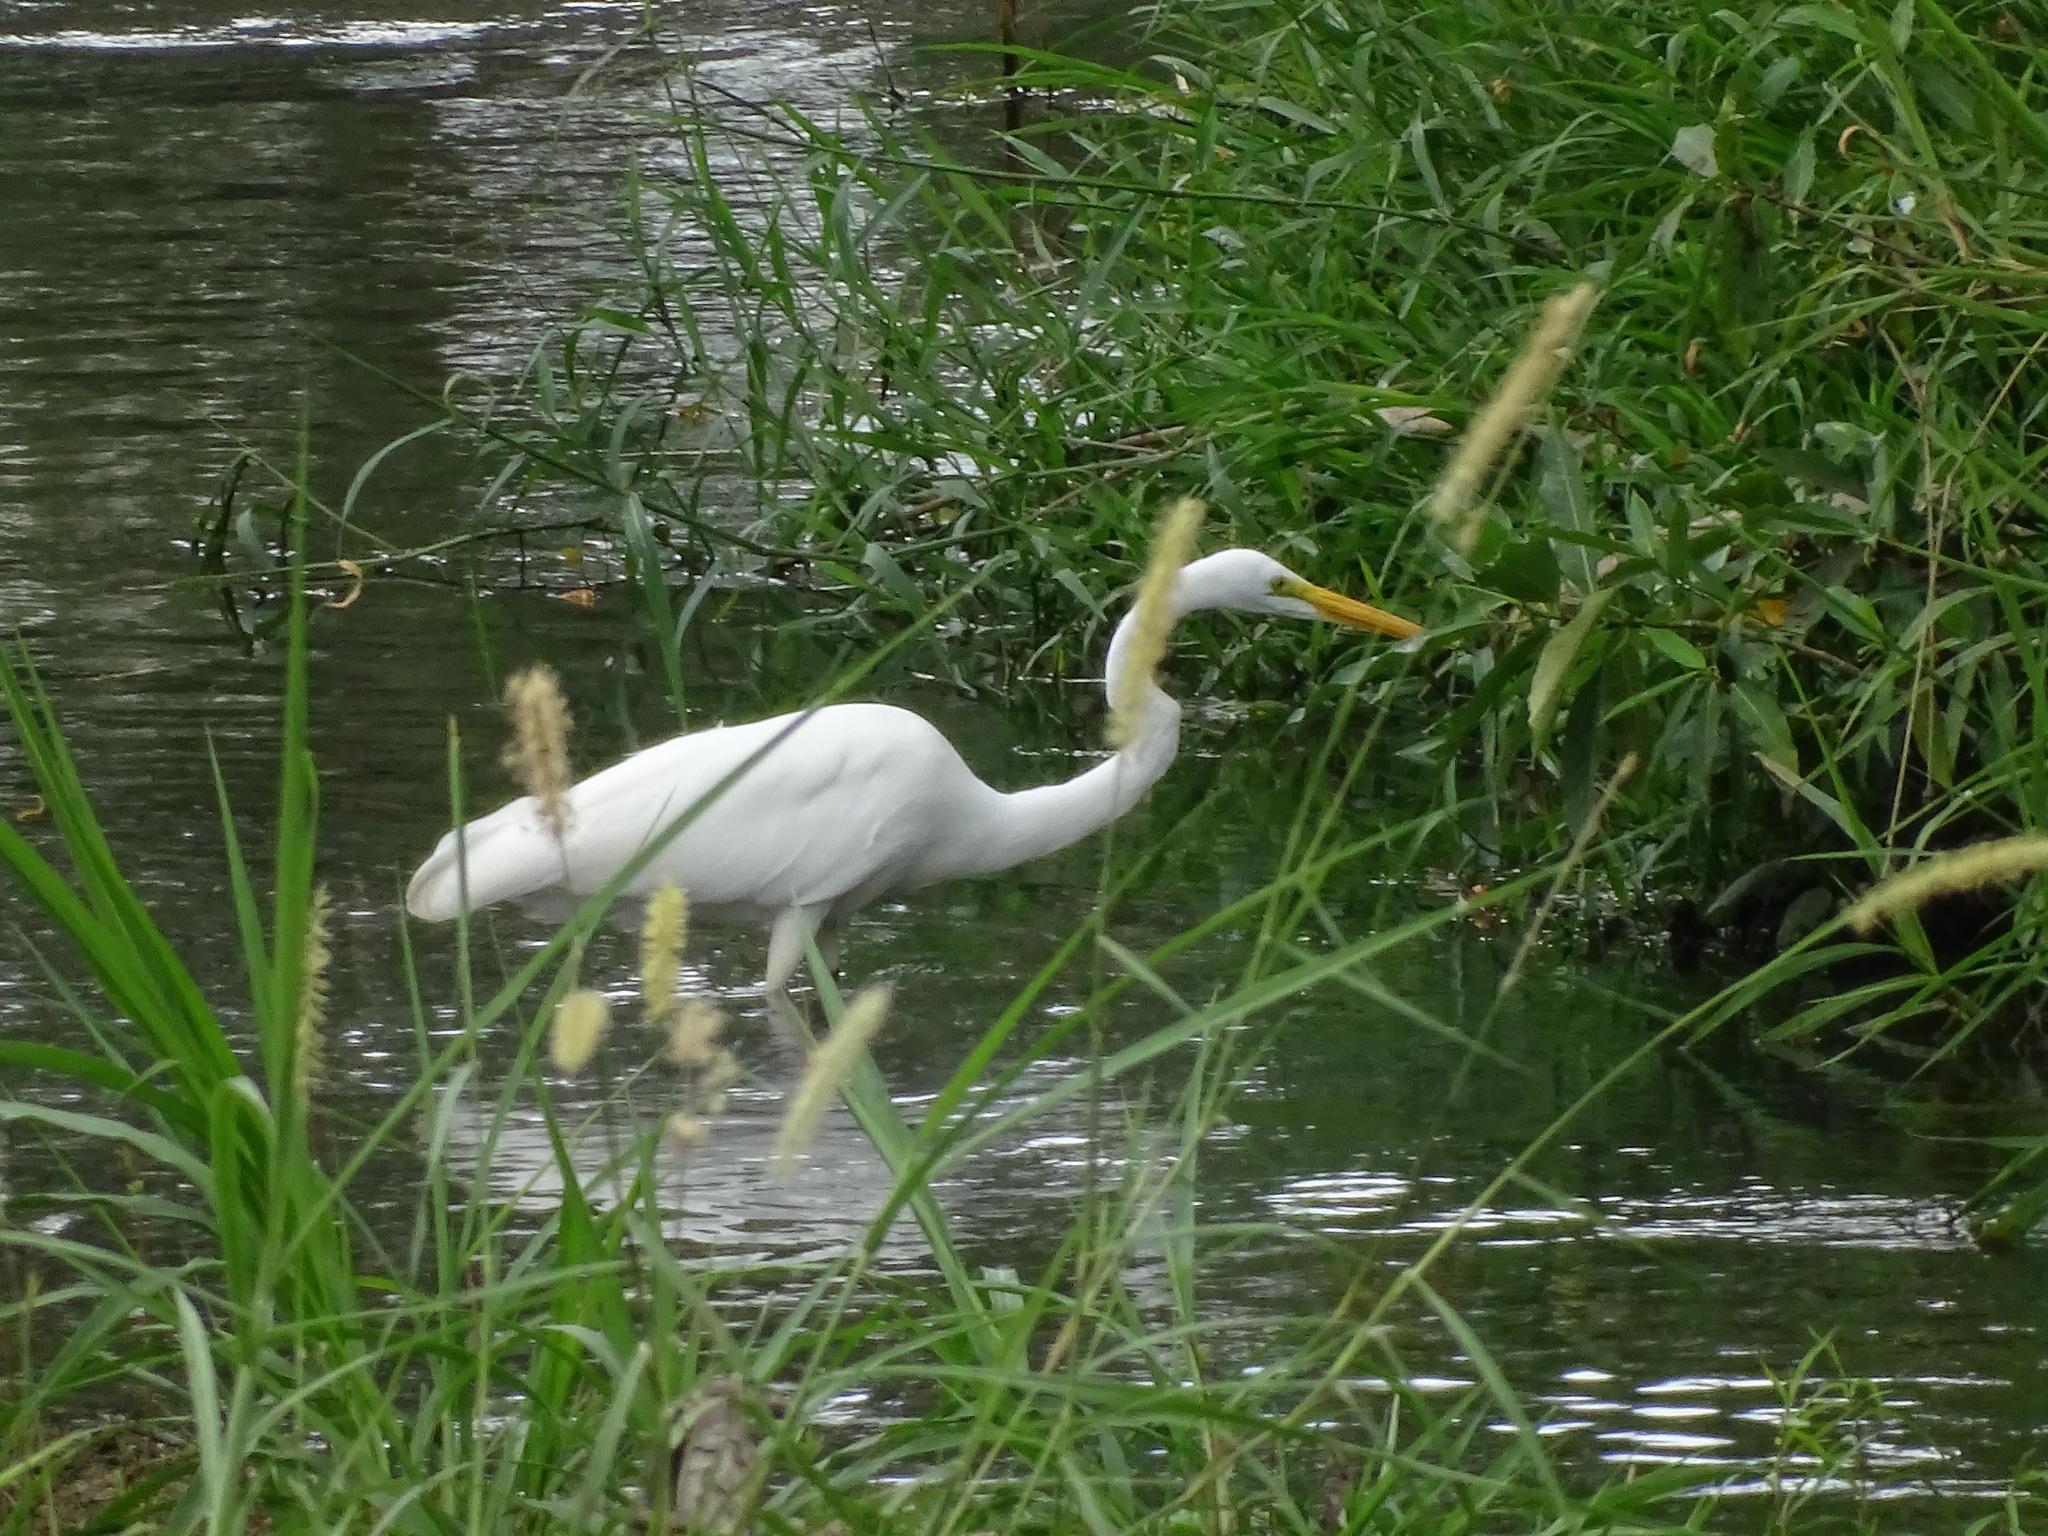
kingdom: Animalia
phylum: Chordata
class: Aves
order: Pelecaniformes
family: Ardeidae
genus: Ardea
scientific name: Ardea alba
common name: Great egret
